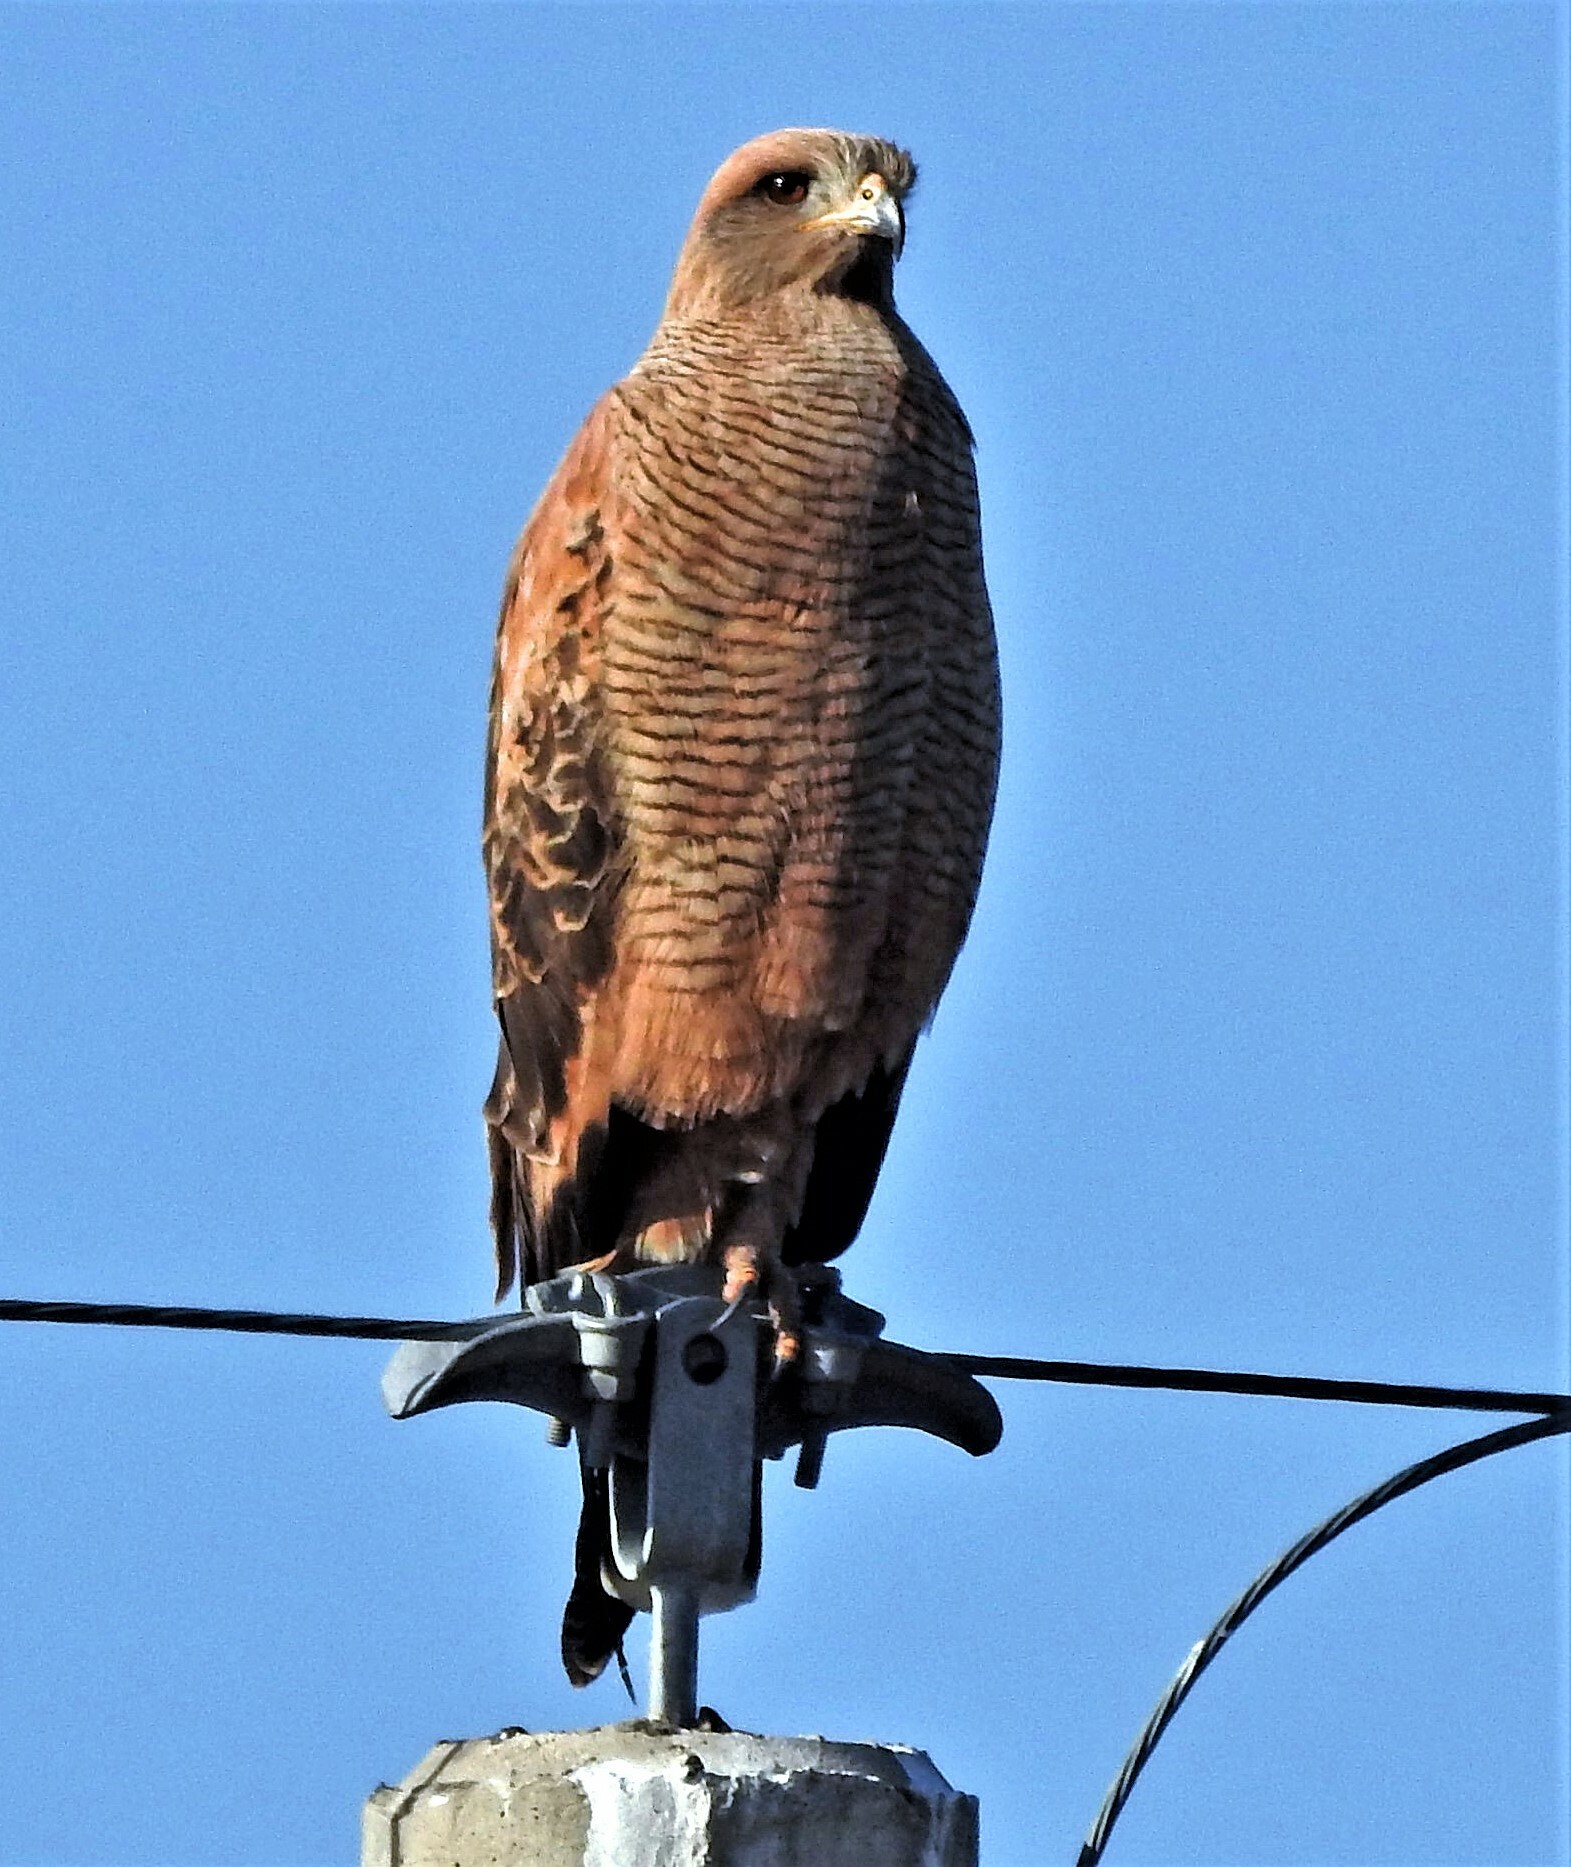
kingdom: Animalia
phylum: Chordata
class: Aves
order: Accipitriformes
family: Accipitridae
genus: Buteogallus
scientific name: Buteogallus meridionalis
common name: Savanna hawk
